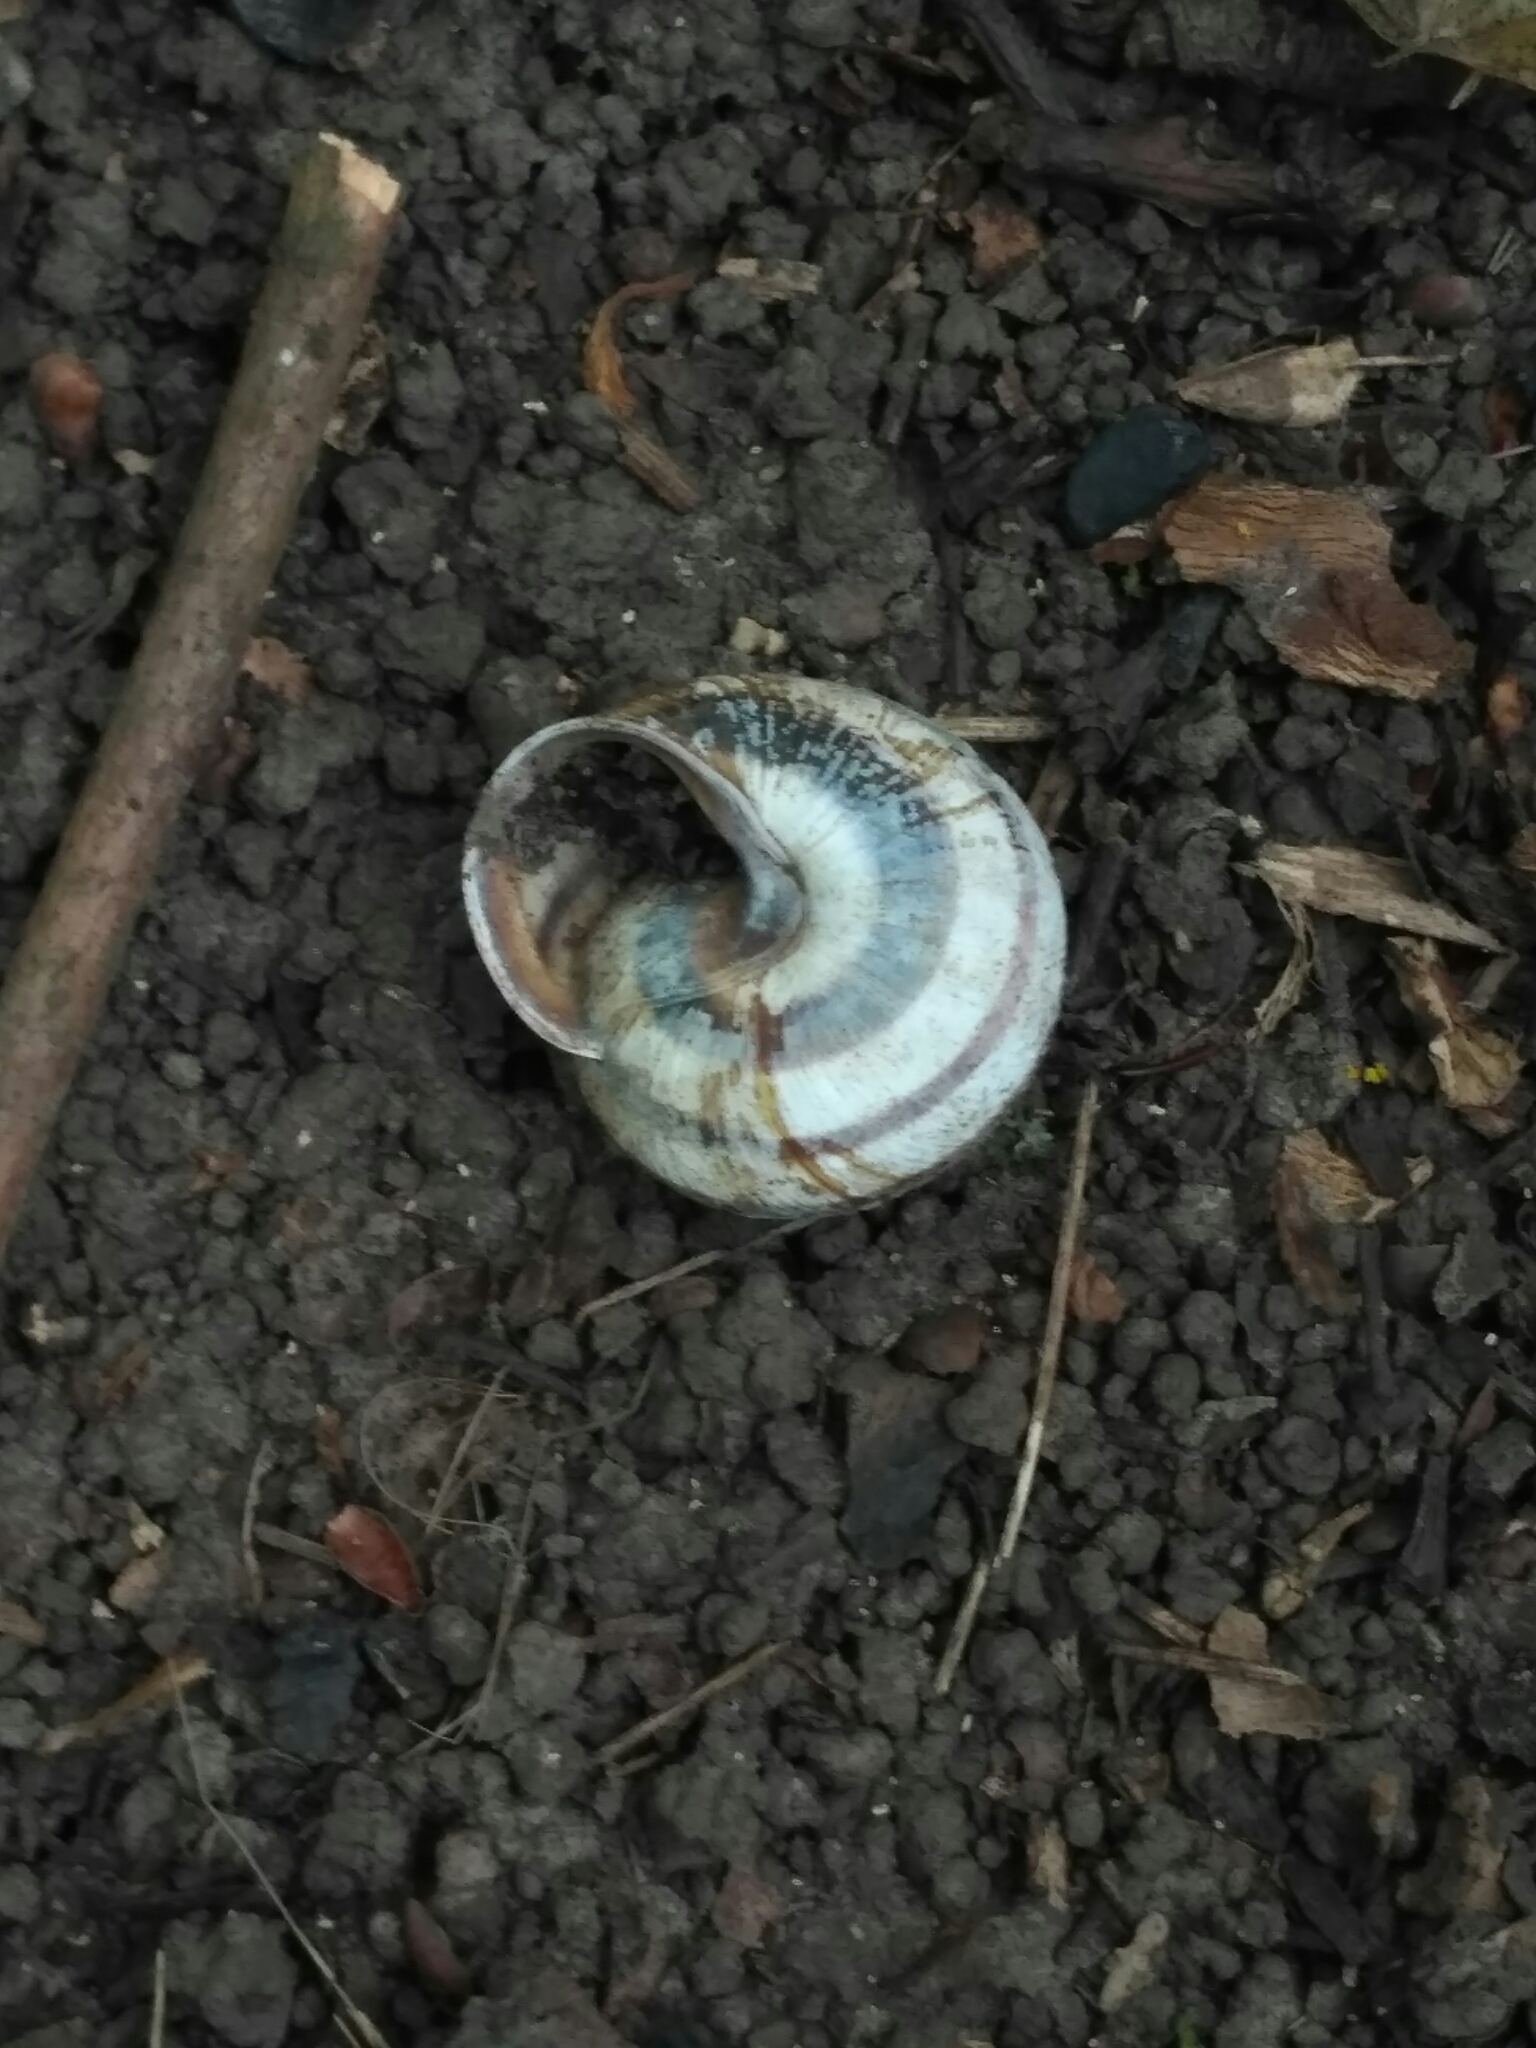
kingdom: Animalia
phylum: Mollusca
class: Gastropoda
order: Stylommatophora
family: Helicidae
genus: Caucasotachea
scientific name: Caucasotachea vindobonensis
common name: European helicid land snail
